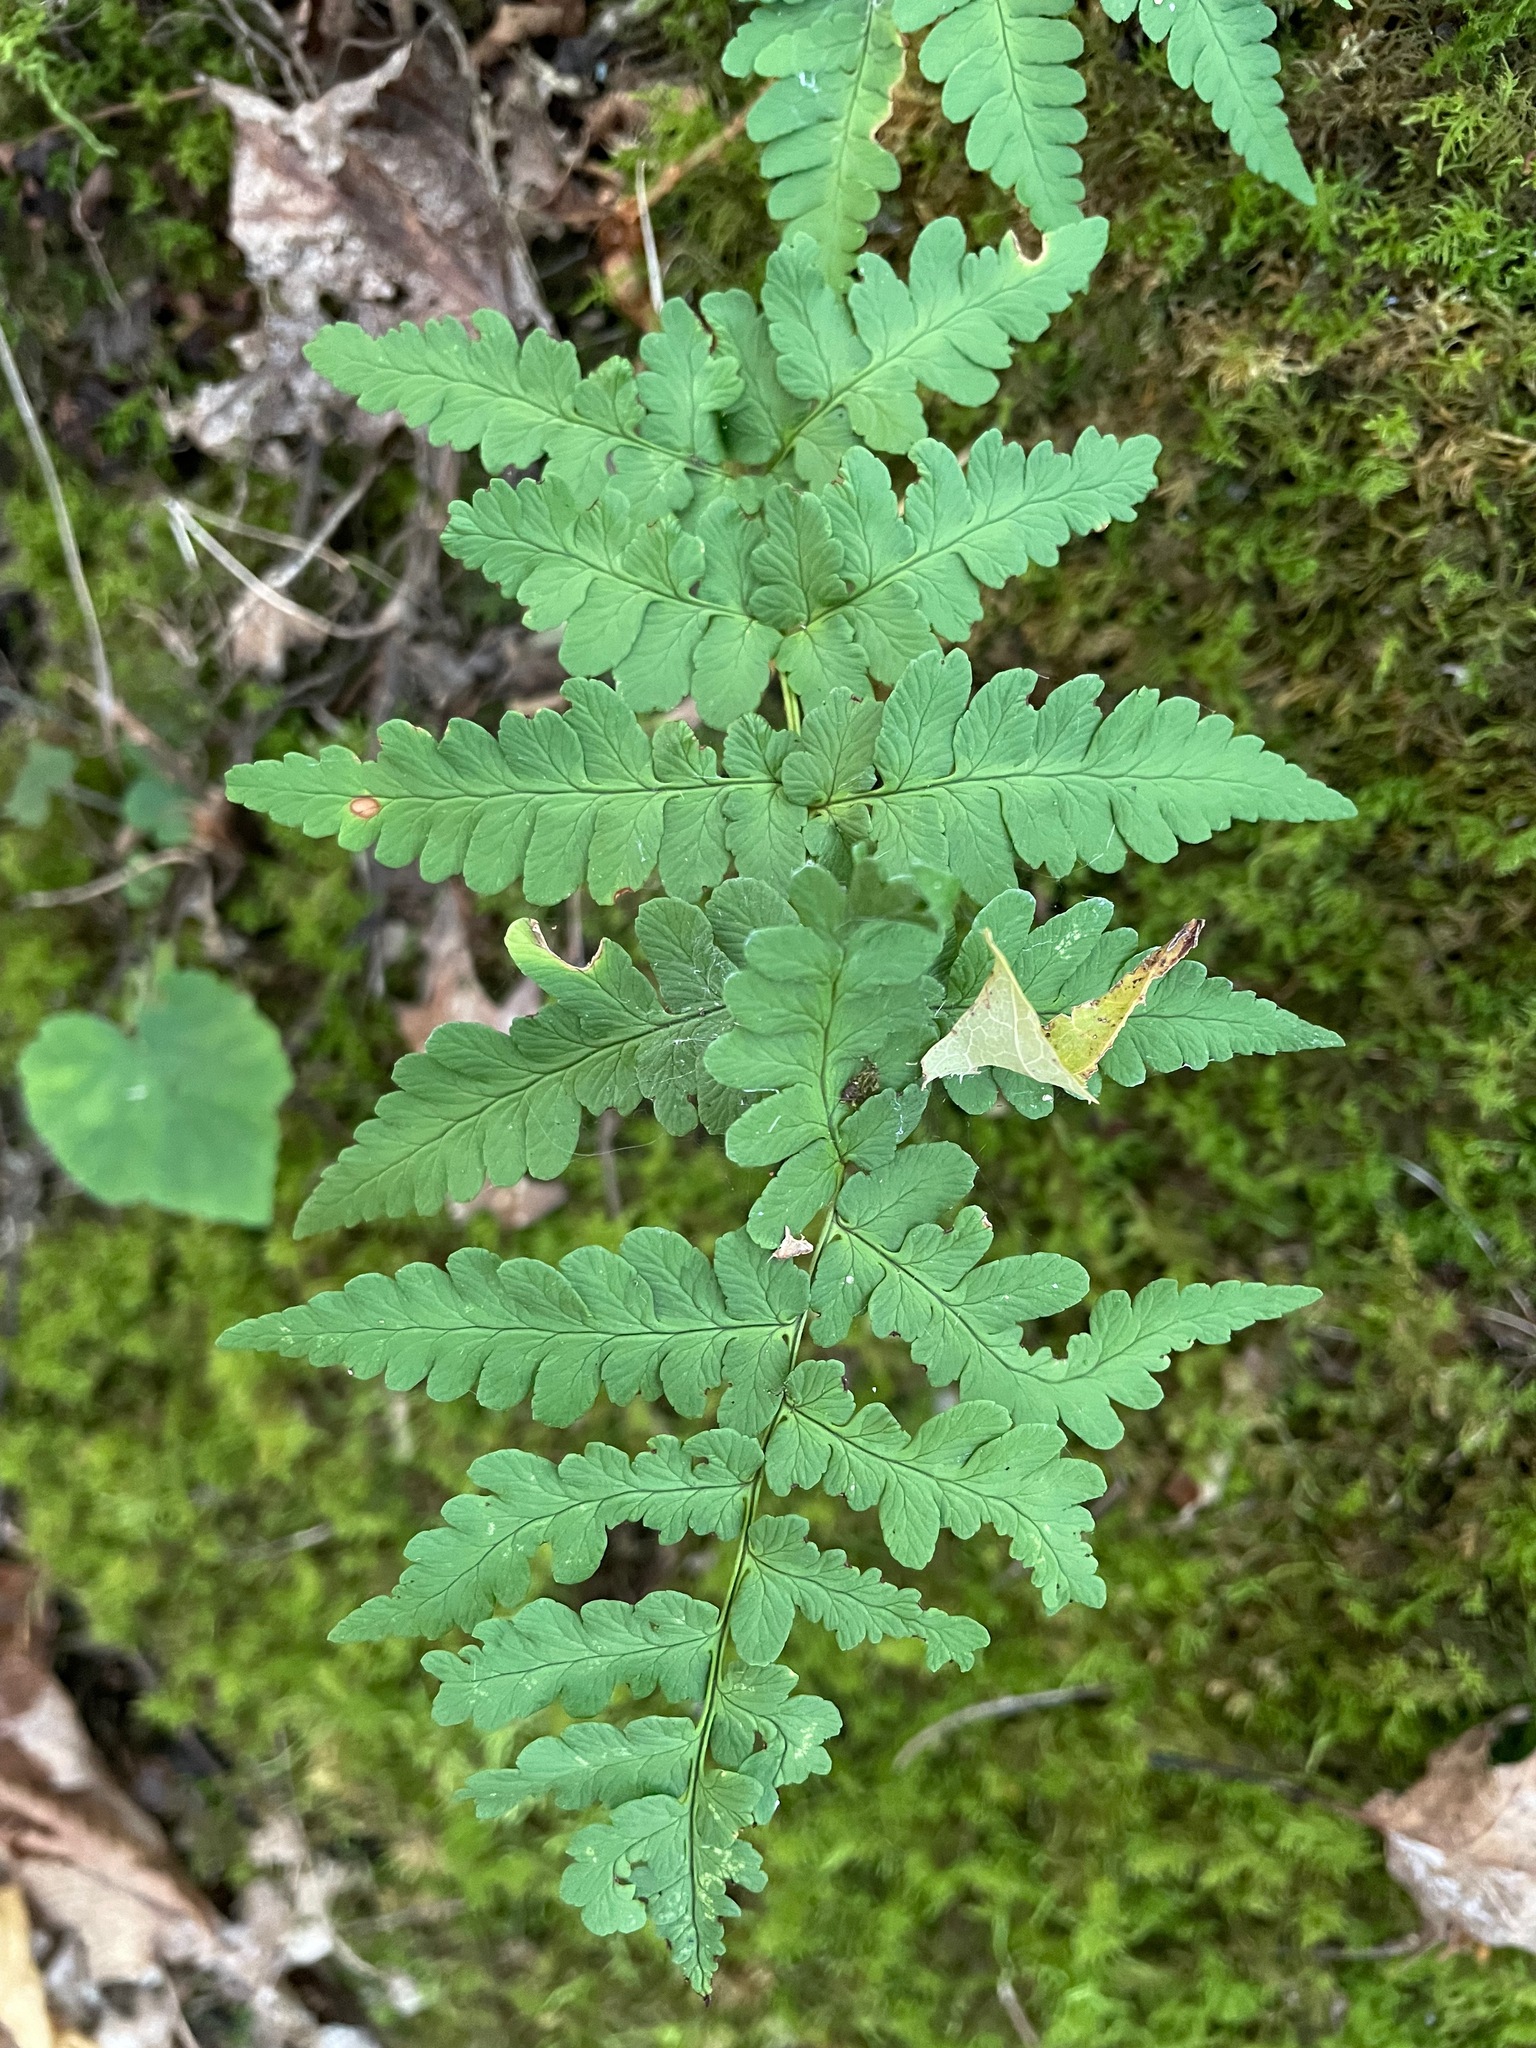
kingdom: Plantae
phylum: Tracheophyta
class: Polypodiopsida
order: Polypodiales
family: Dryopteridaceae
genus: Dryopteris
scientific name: Dryopteris marginalis
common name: Marginal wood fern
